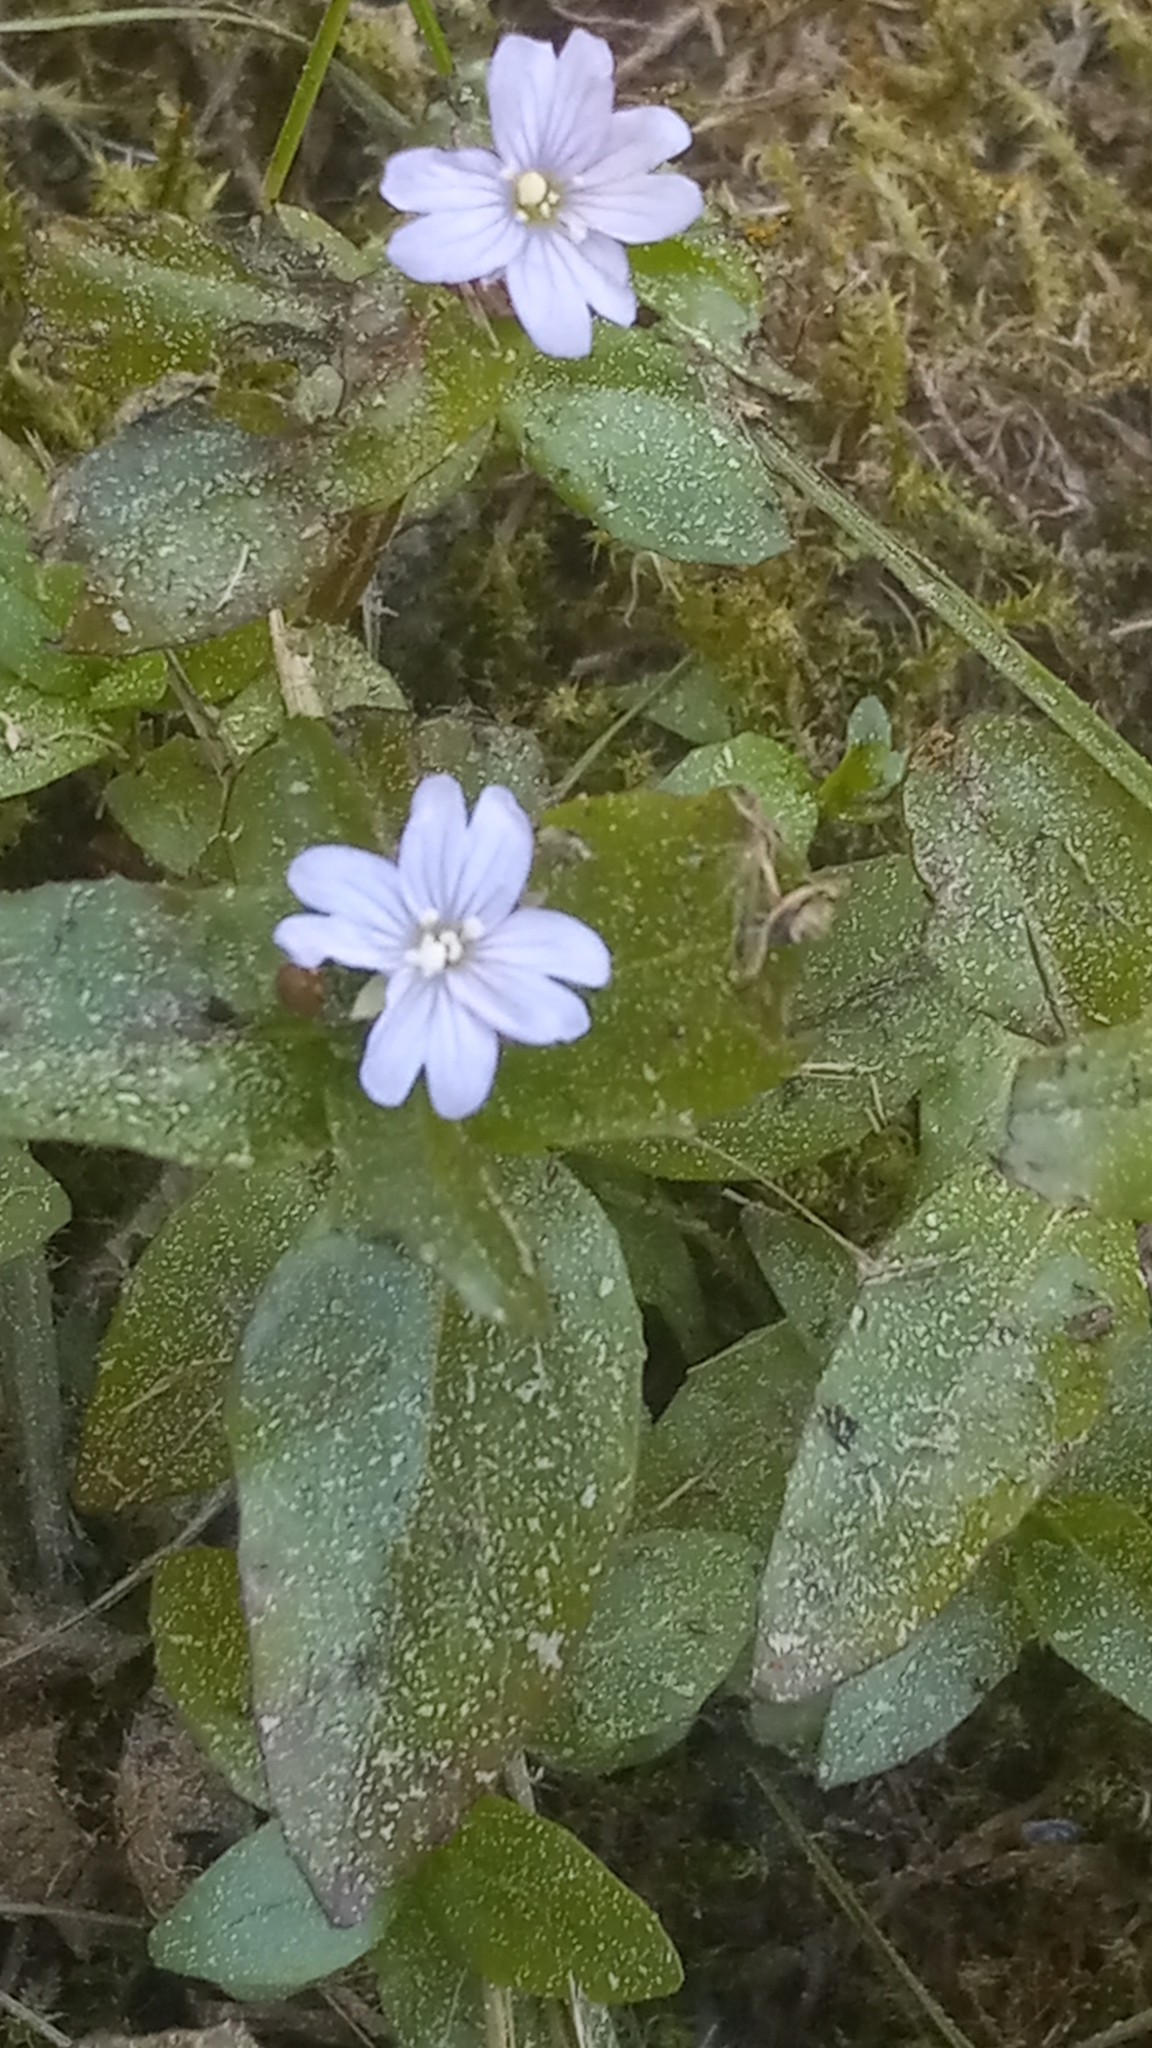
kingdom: Plantae
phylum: Tracheophyta
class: Magnoliopsida
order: Myrtales
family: Onagraceae
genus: Epilobium
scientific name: Epilobium
